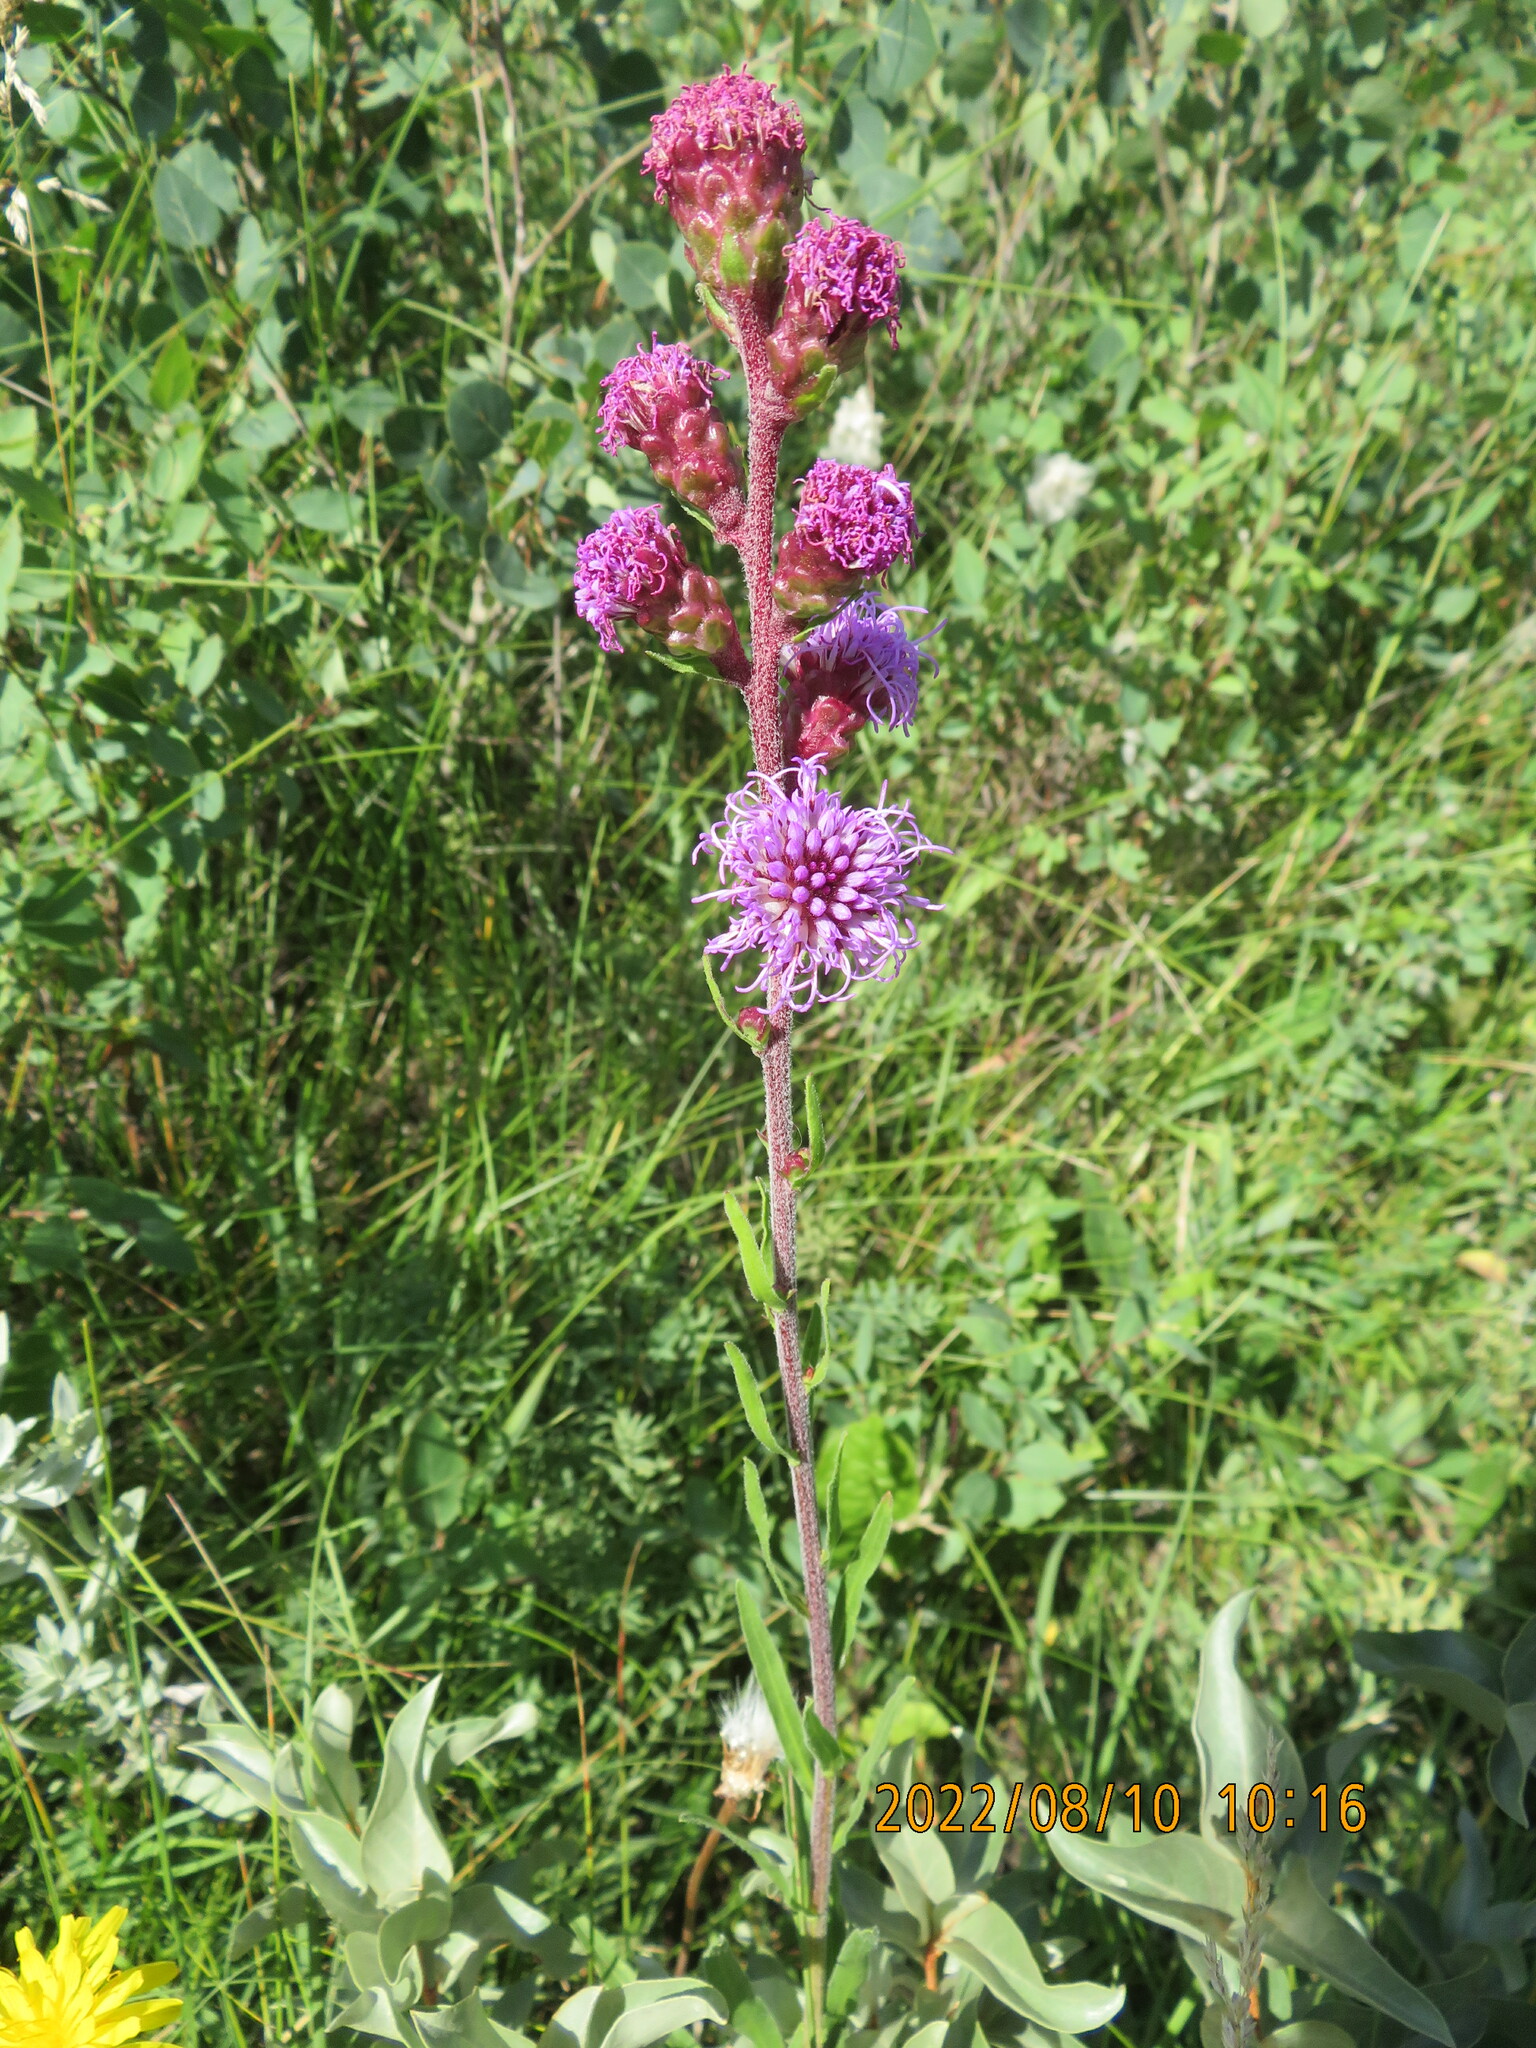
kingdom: Plantae
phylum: Tracheophyta
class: Magnoliopsida
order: Asterales
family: Asteraceae
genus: Liatris
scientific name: Liatris ligulistylis
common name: Northern plains gayfeather
